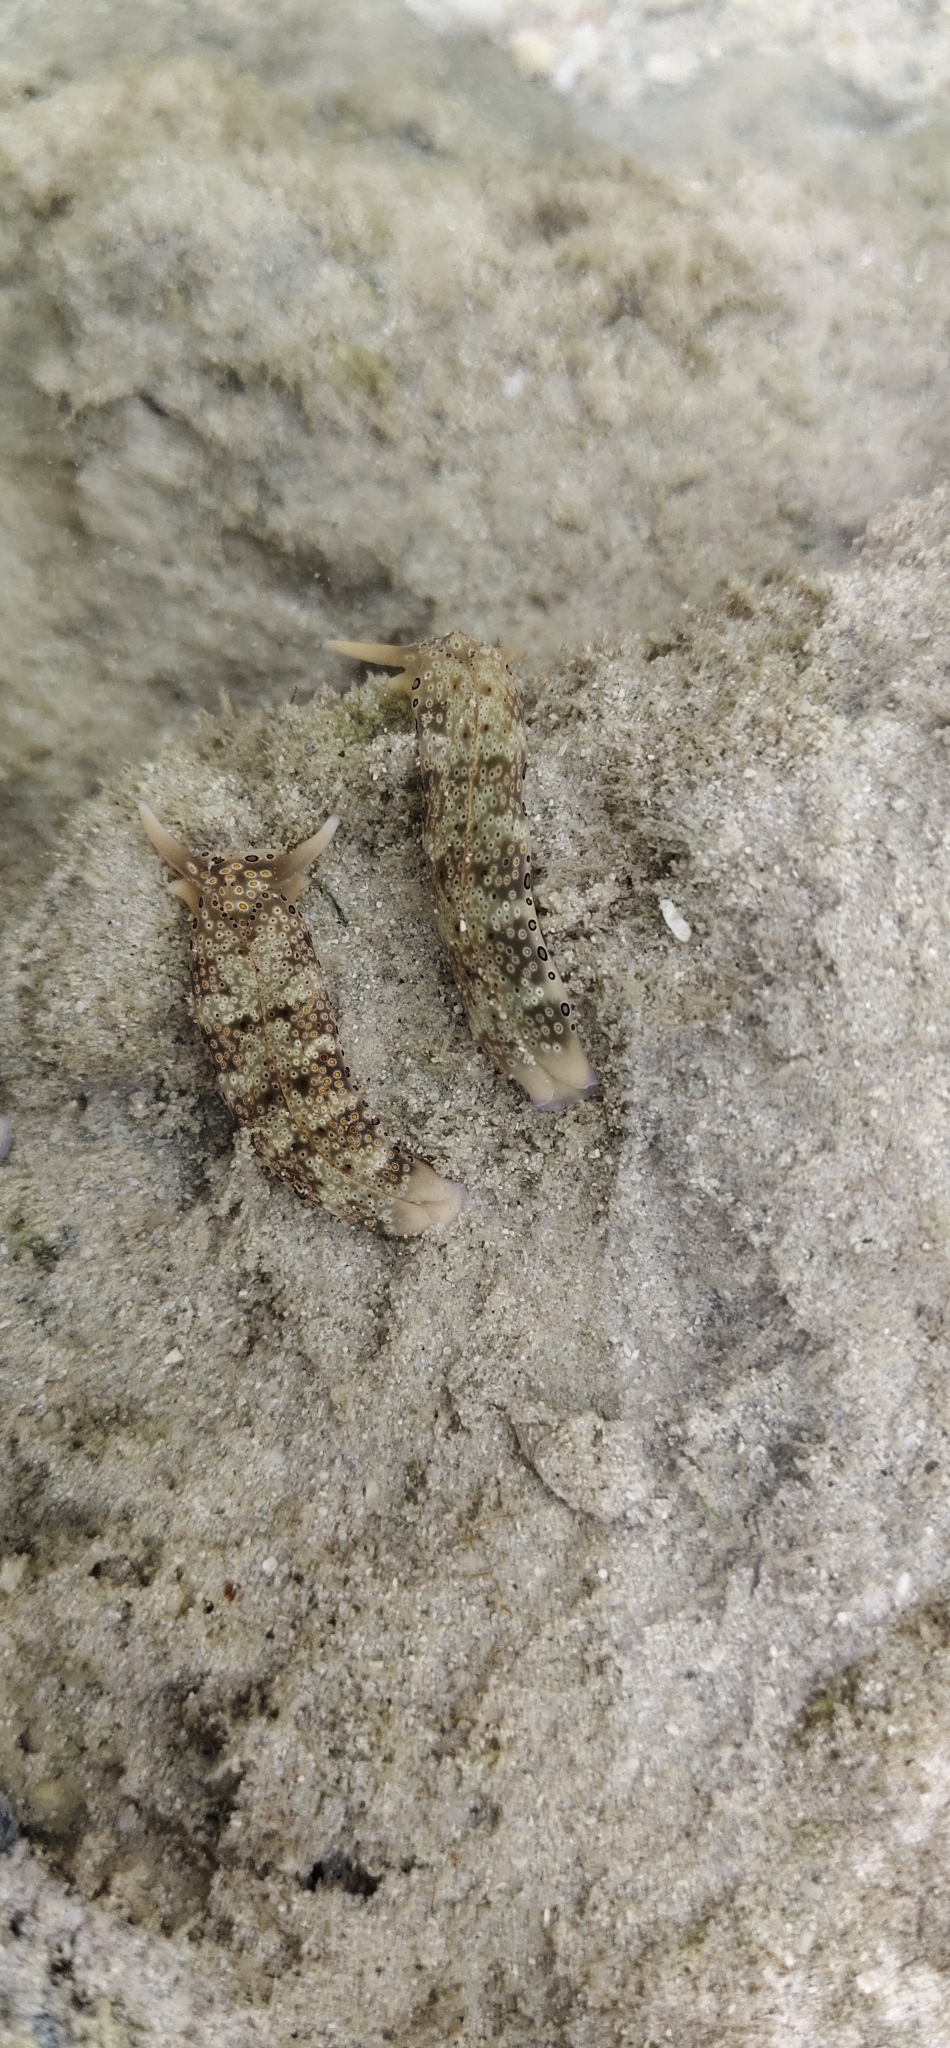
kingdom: Animalia
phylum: Mollusca
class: Gastropoda
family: Plakobranchidae
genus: Plakobranchus
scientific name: Plakobranchus ocellatus
